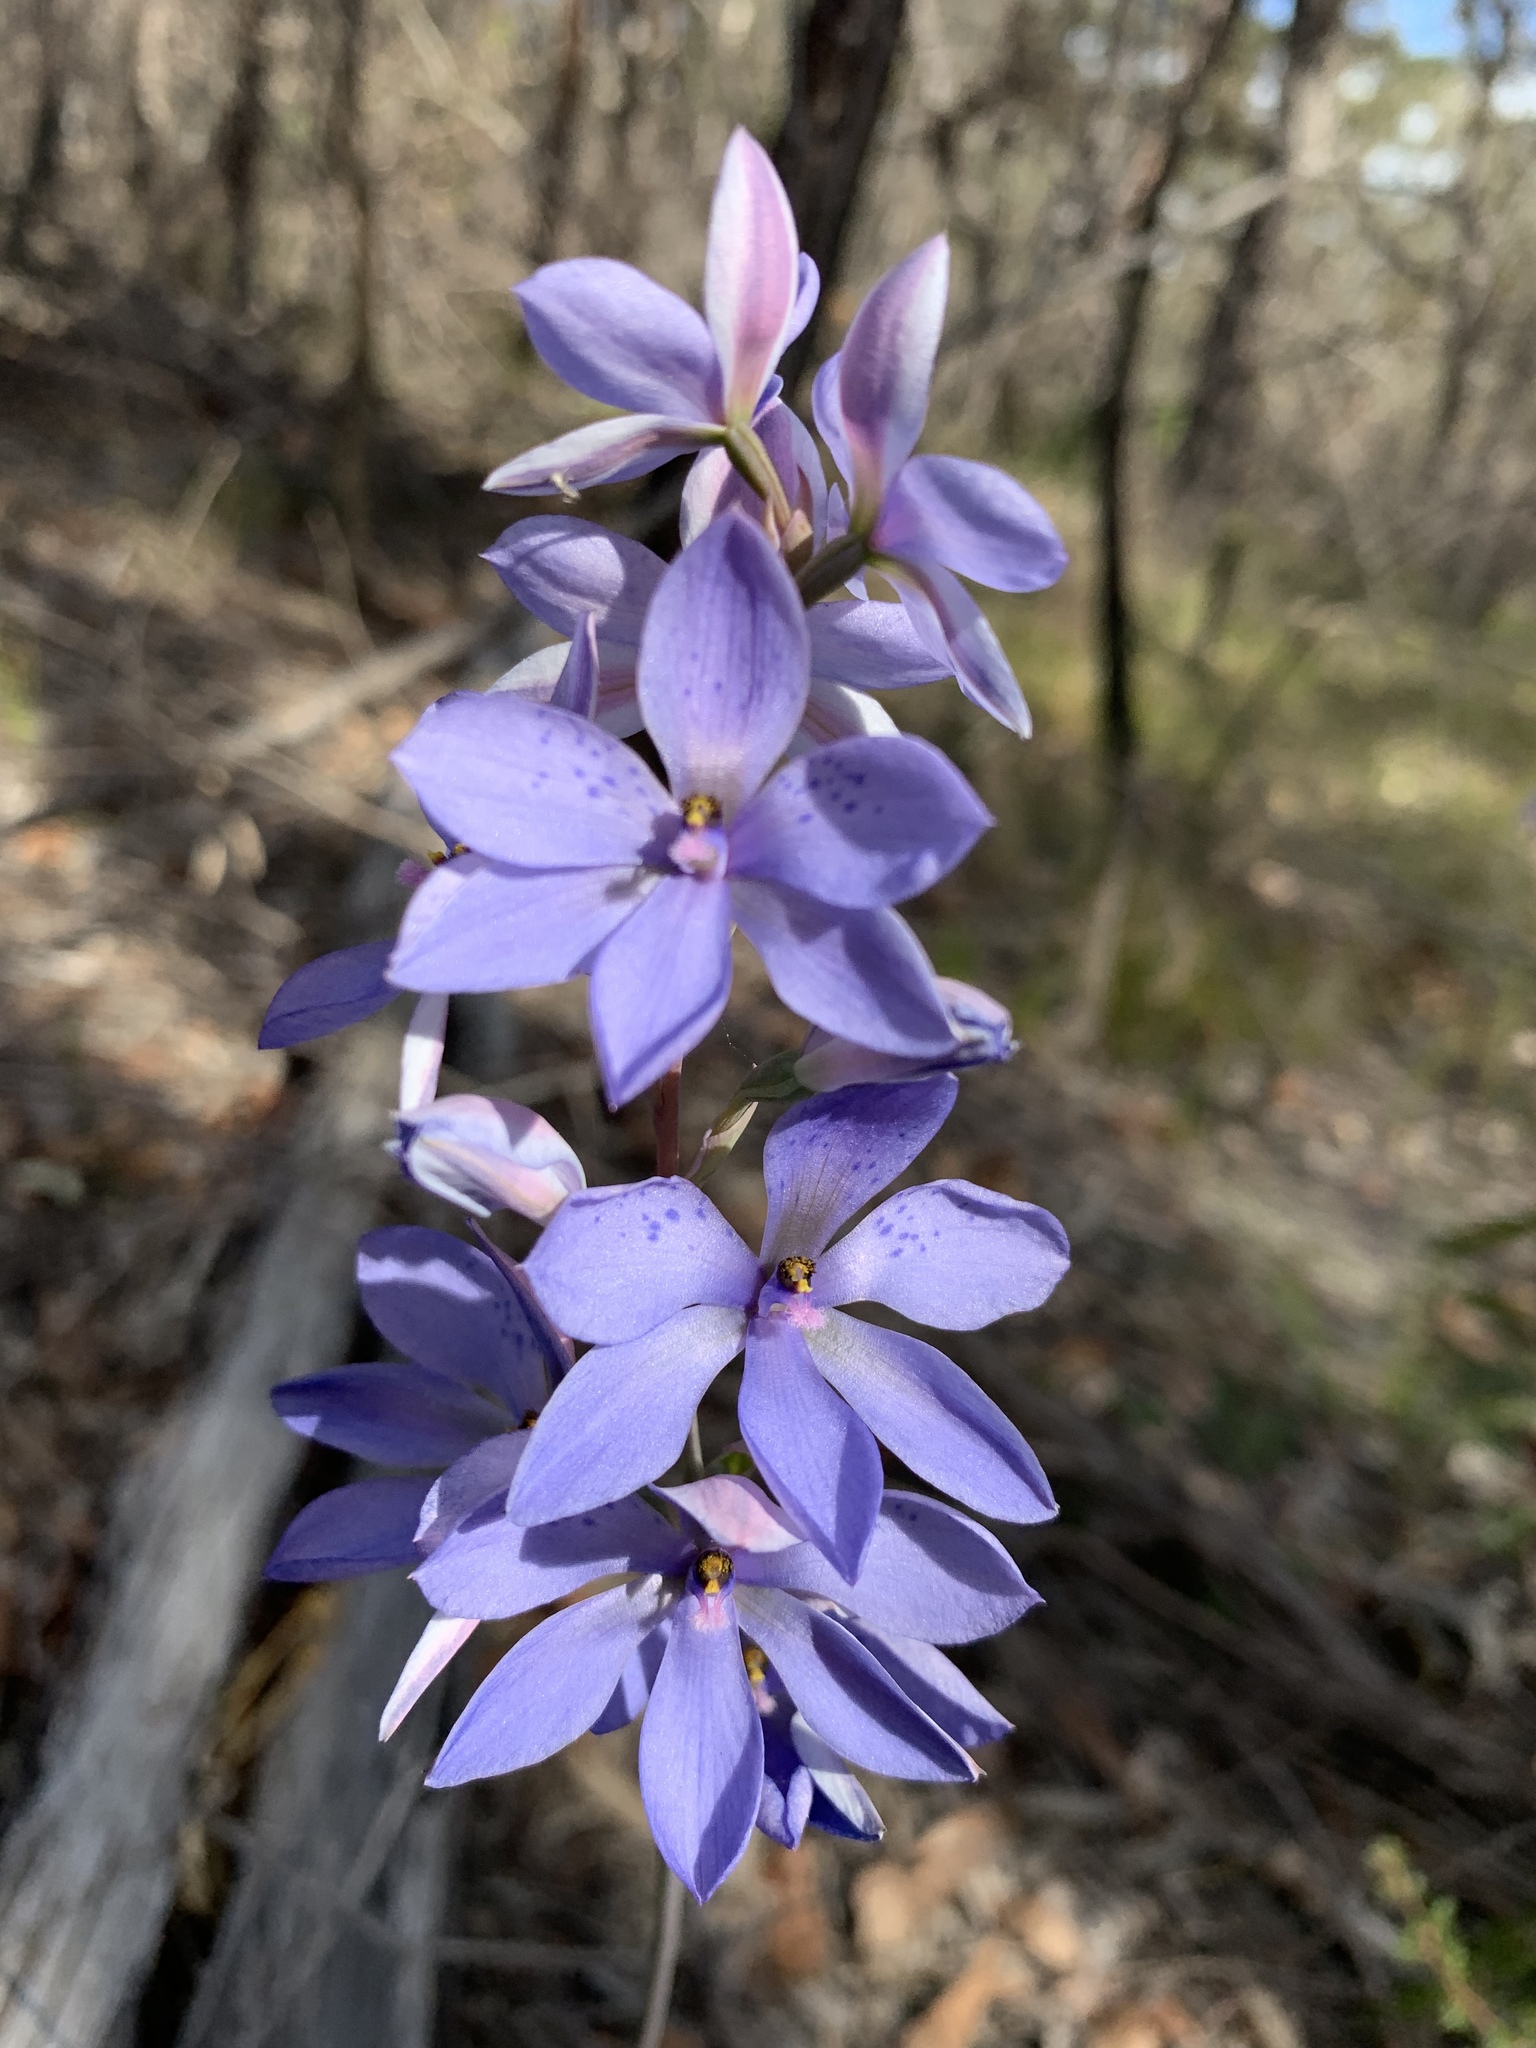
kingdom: Plantae
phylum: Tracheophyta
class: Liliopsida
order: Asparagales
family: Orchidaceae
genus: Thelymitra
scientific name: Thelymitra ixioides
